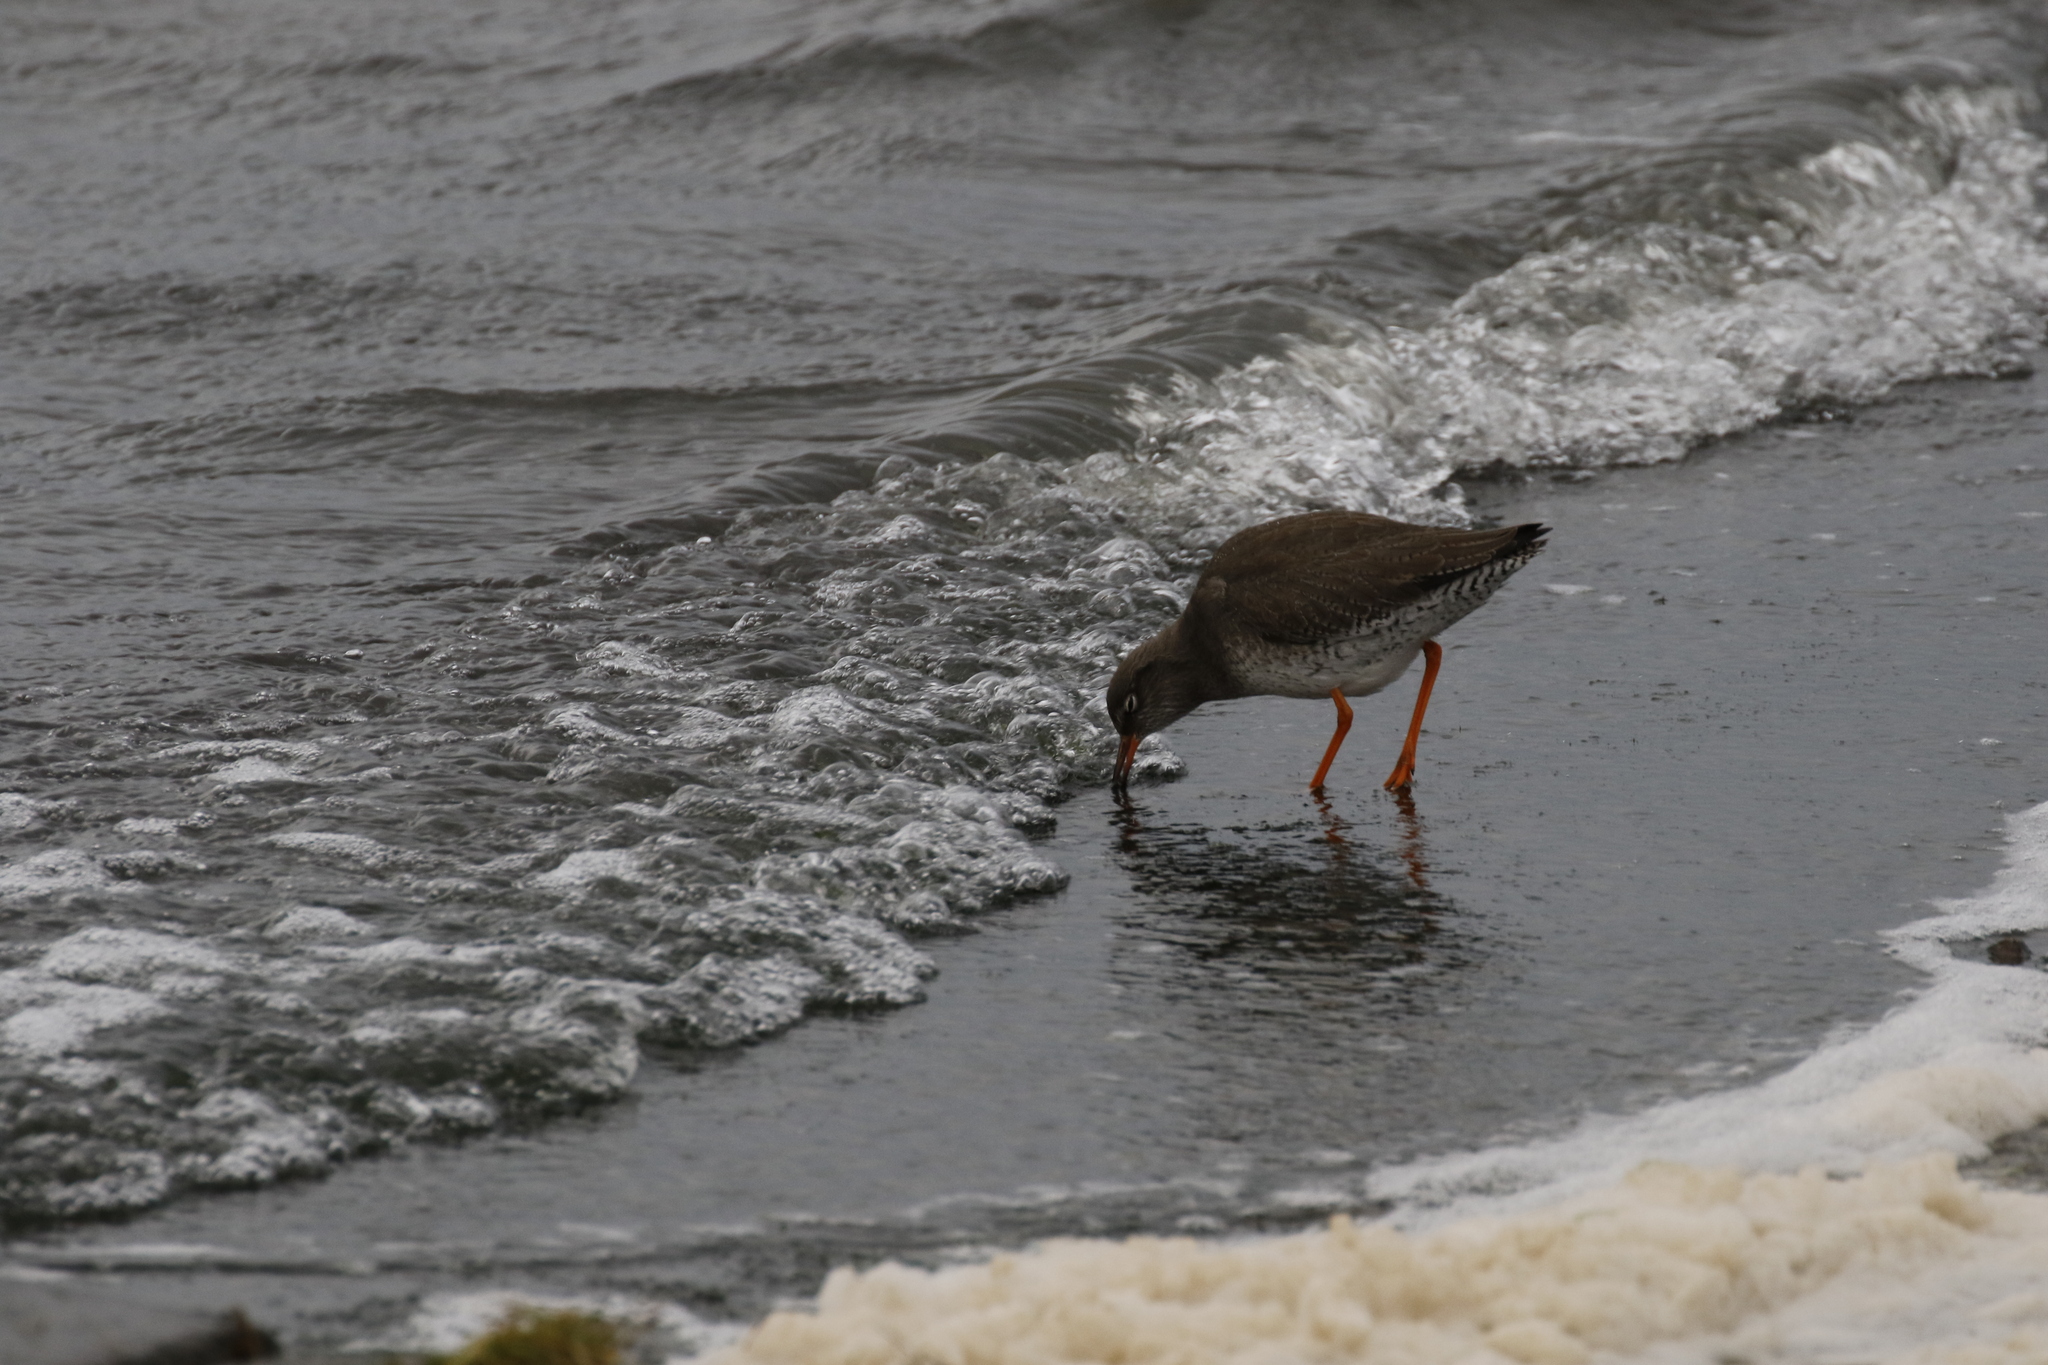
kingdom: Animalia
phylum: Chordata
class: Aves
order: Charadriiformes
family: Scolopacidae
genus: Tringa
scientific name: Tringa totanus
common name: Common redshank
